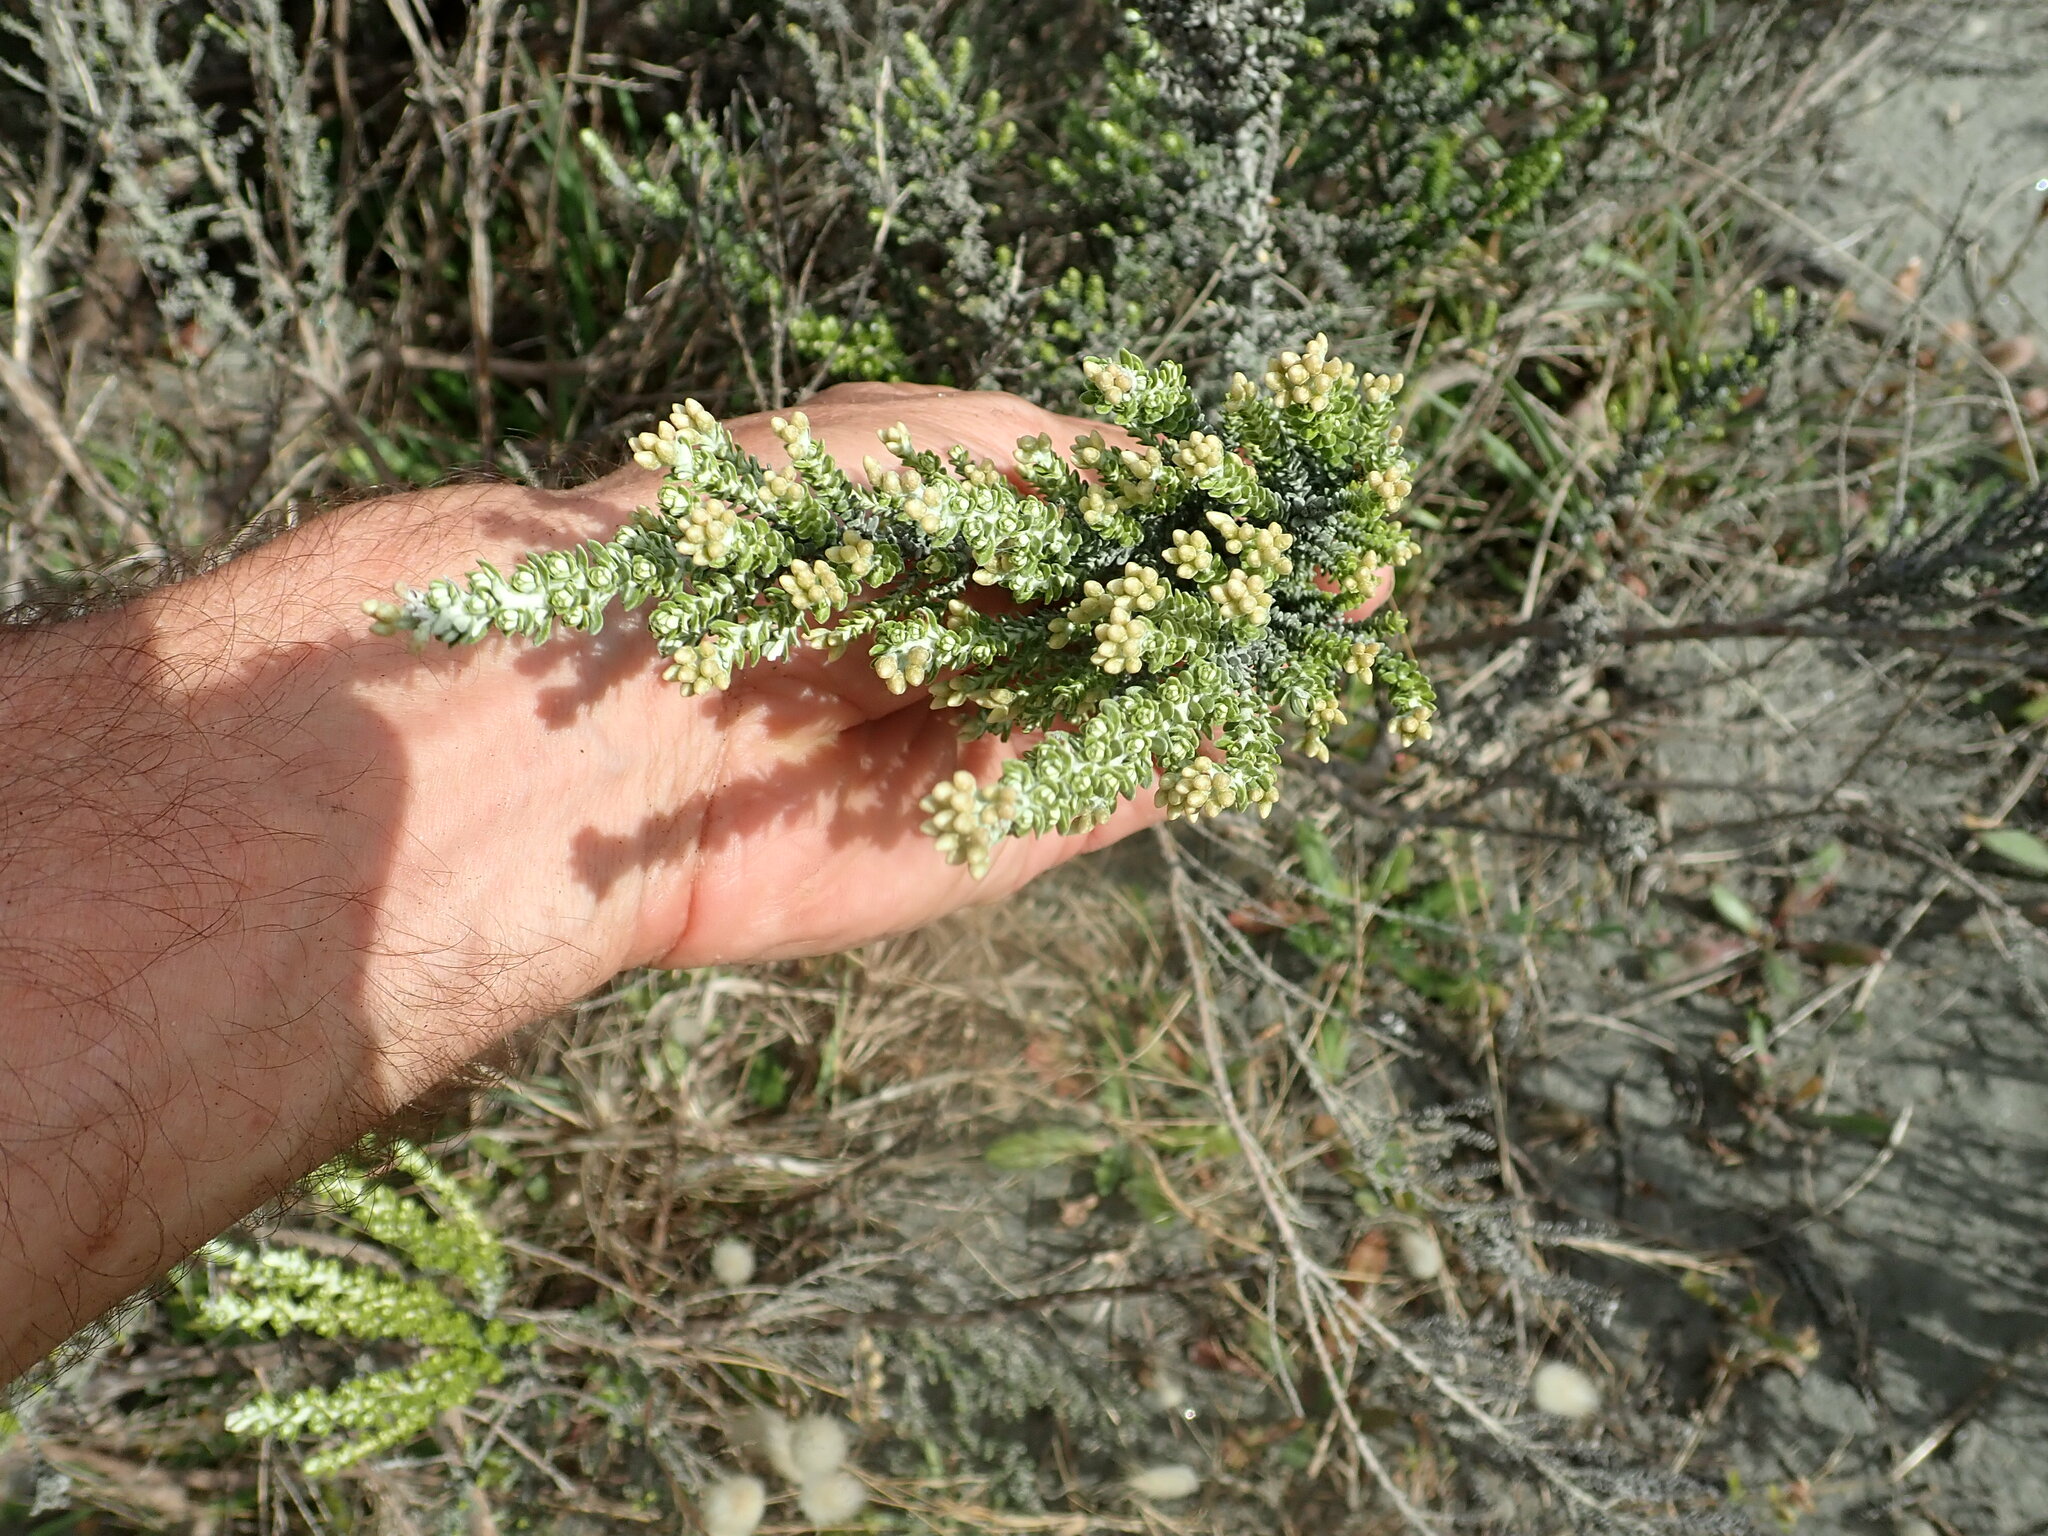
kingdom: Plantae
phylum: Tracheophyta
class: Magnoliopsida
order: Asterales
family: Asteraceae
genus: Ozothamnus
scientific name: Ozothamnus leptophyllus
